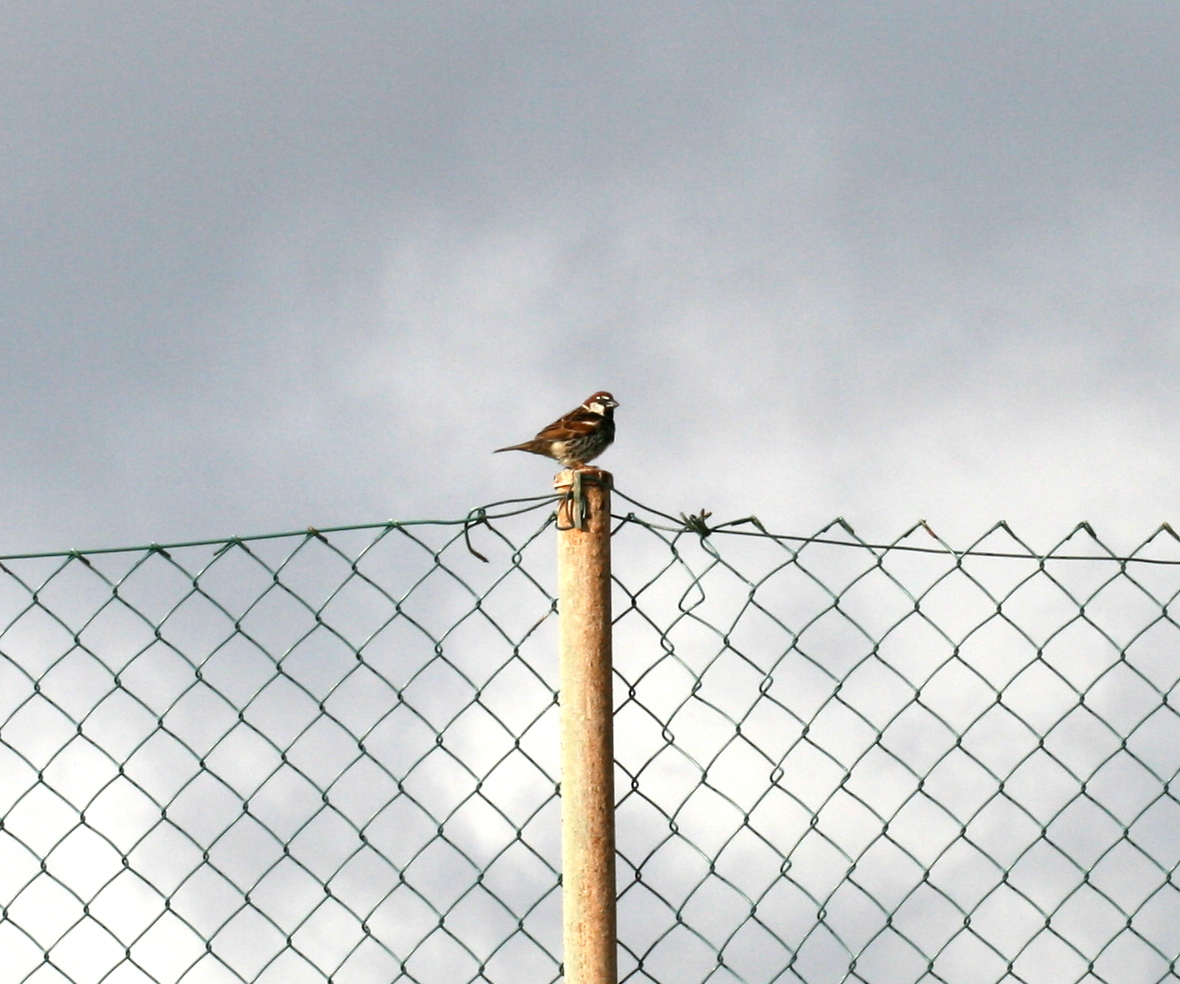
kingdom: Animalia
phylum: Chordata
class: Aves
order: Passeriformes
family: Passeridae
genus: Passer
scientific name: Passer hispaniolensis
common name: Spanish sparrow
